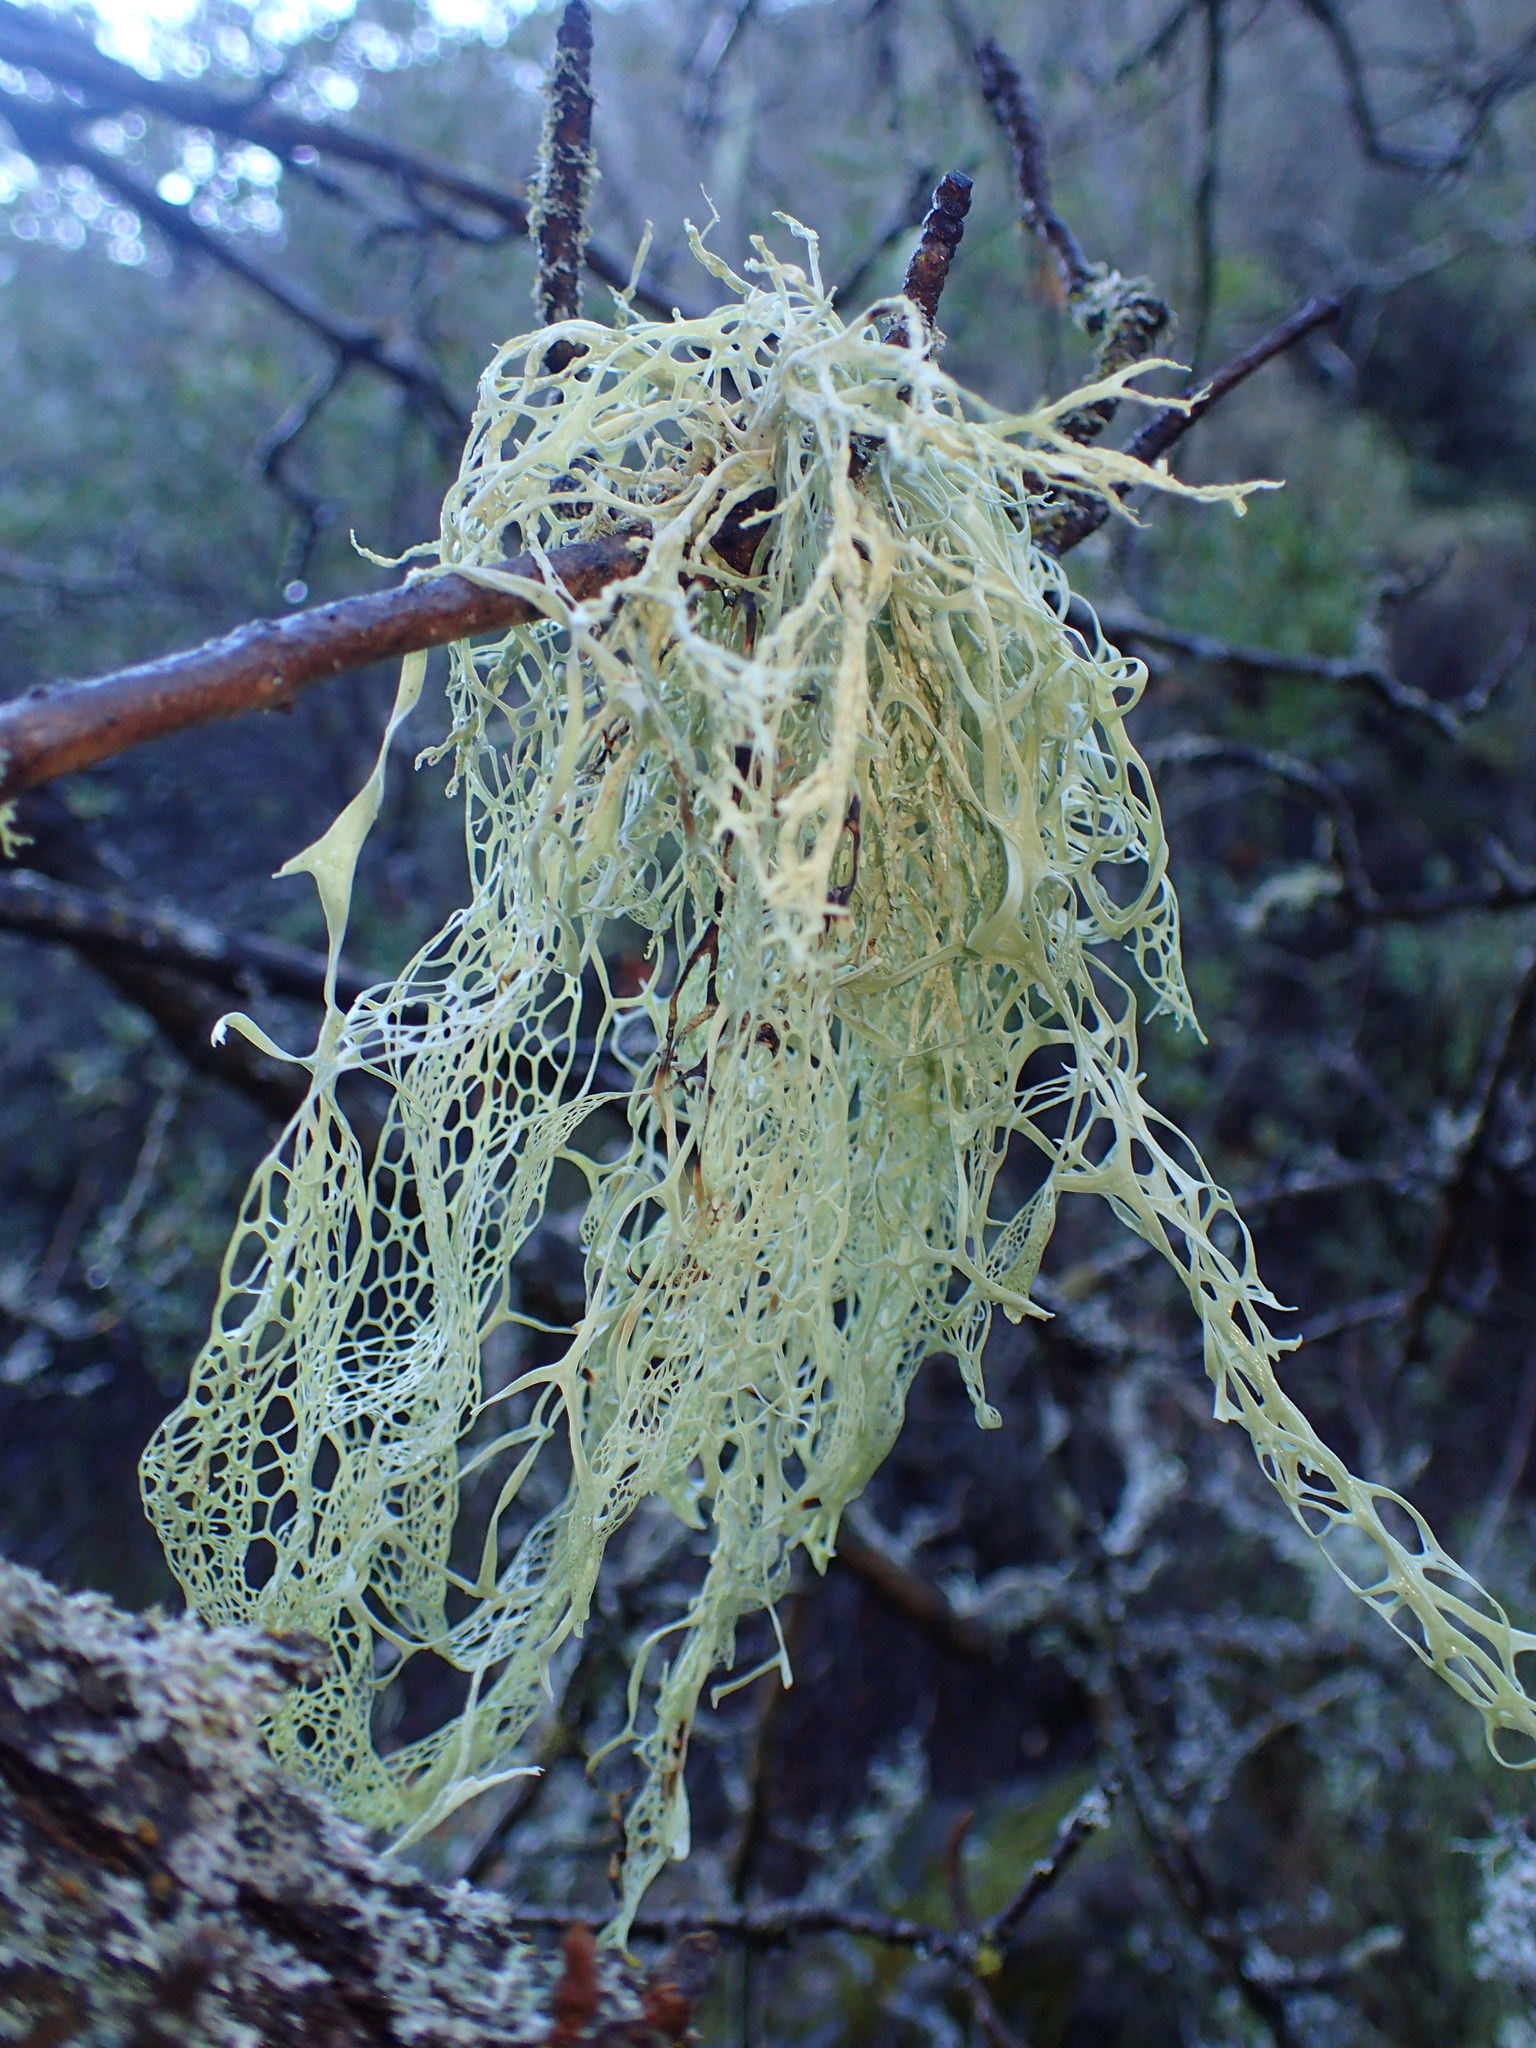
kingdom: Fungi
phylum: Ascomycota
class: Lecanoromycetes
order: Lecanorales
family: Ramalinaceae
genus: Ramalina
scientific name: Ramalina menziesii
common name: Lace lichen
